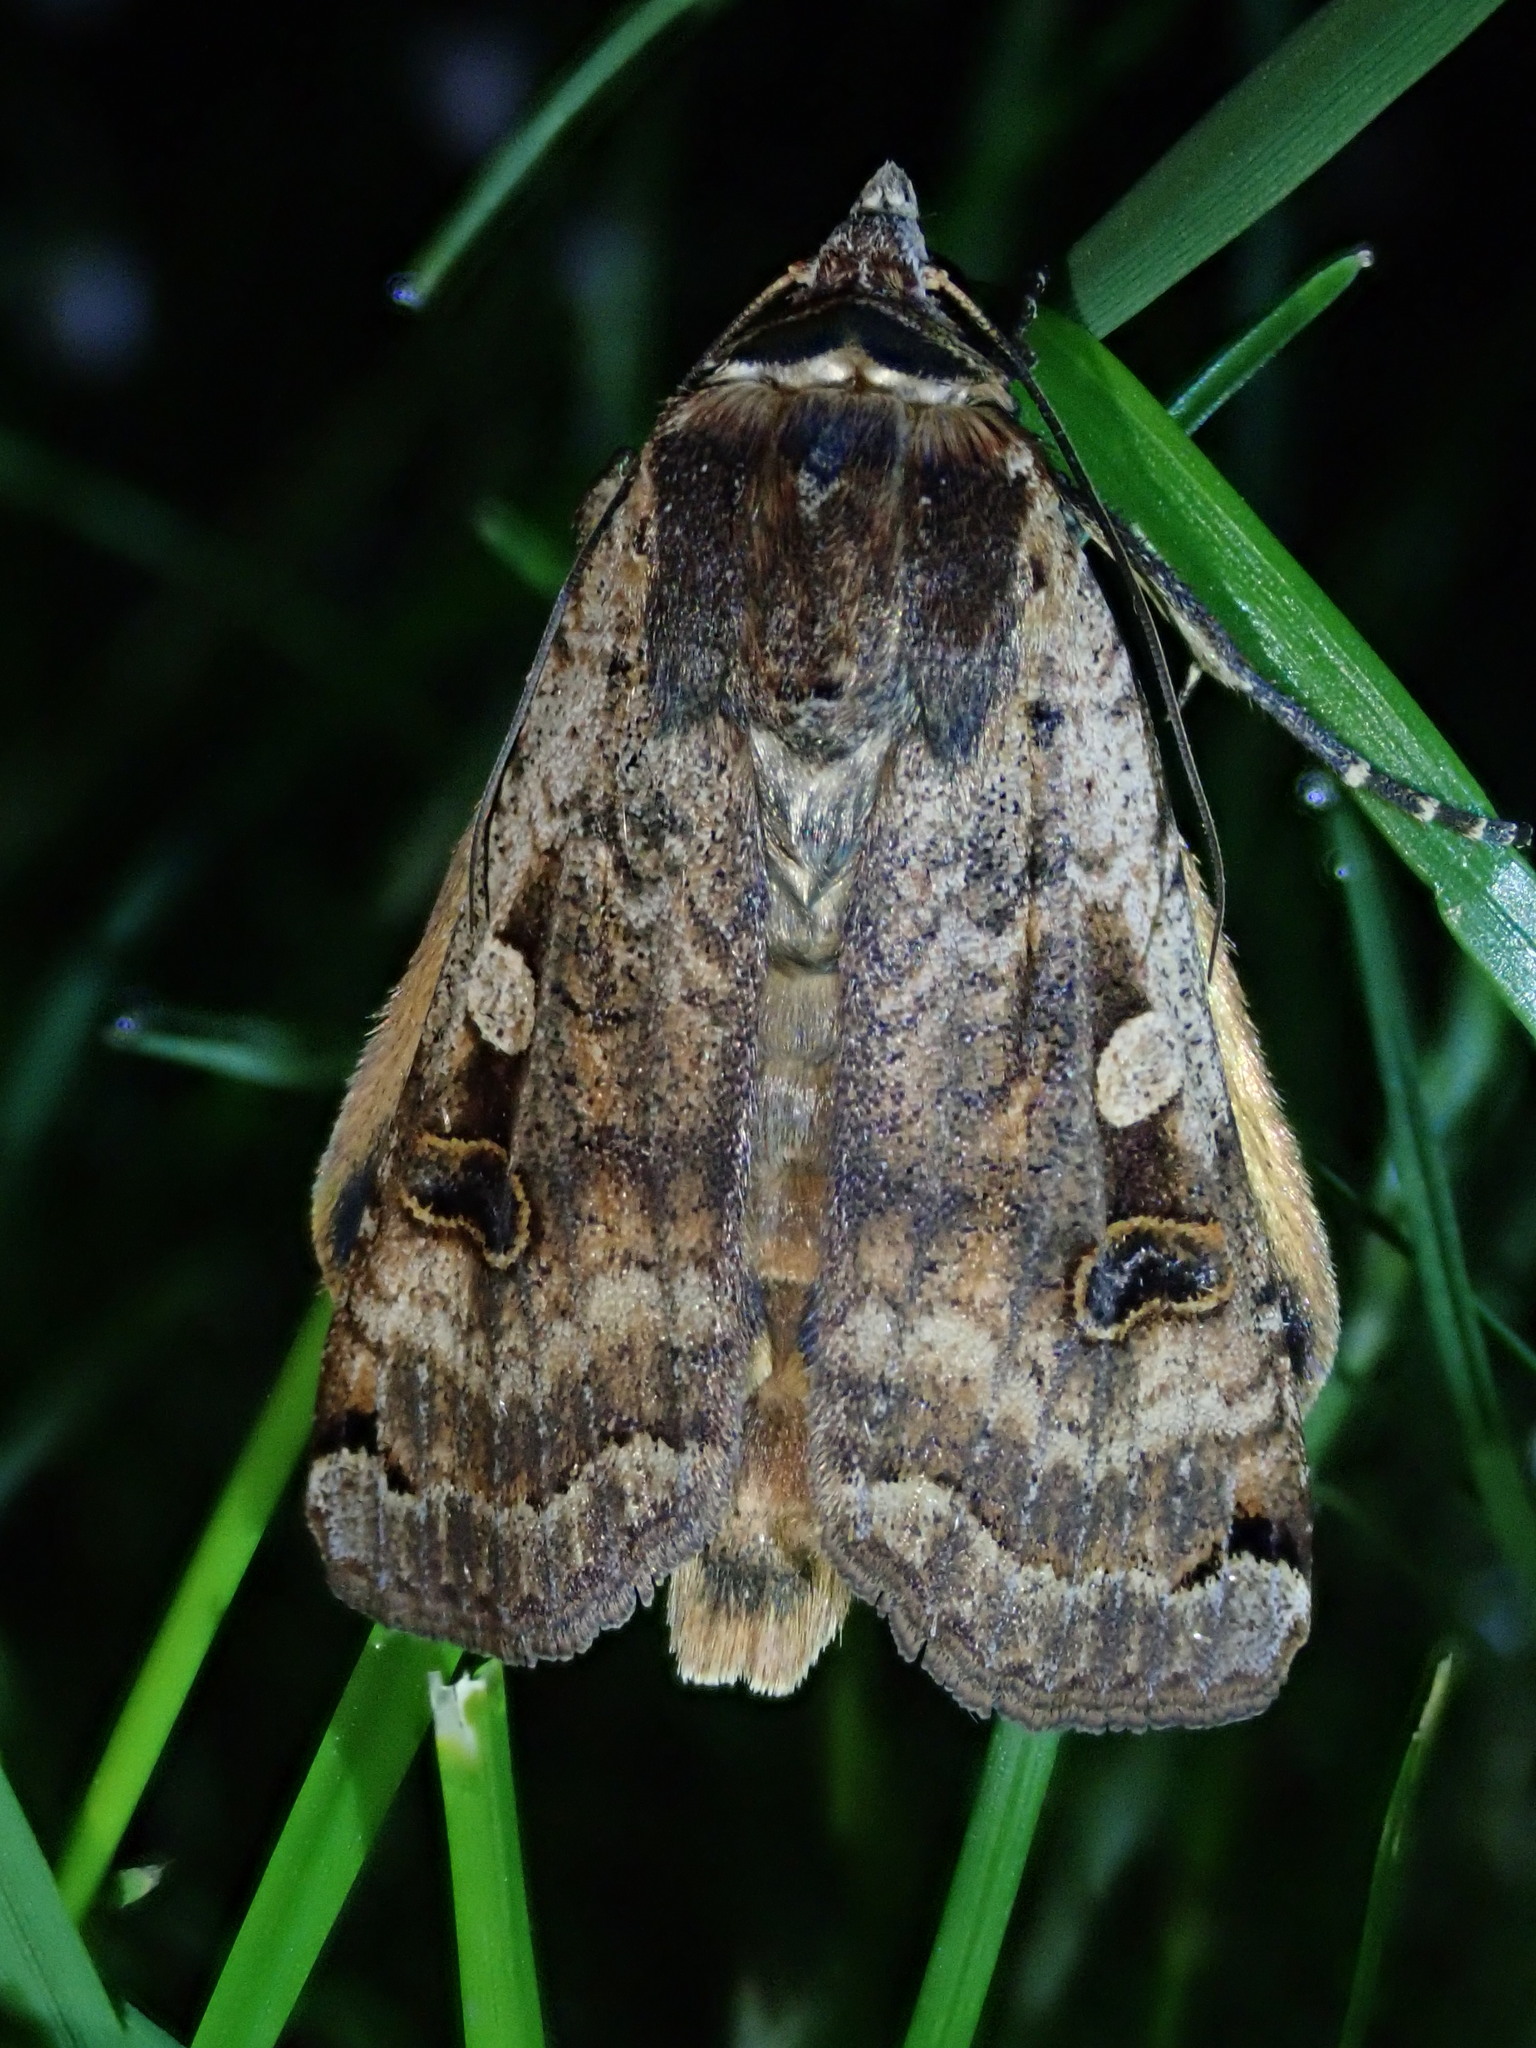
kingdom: Animalia
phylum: Arthropoda
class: Insecta
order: Lepidoptera
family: Noctuidae
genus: Noctua
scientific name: Noctua pronuba
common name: Large yellow underwing
